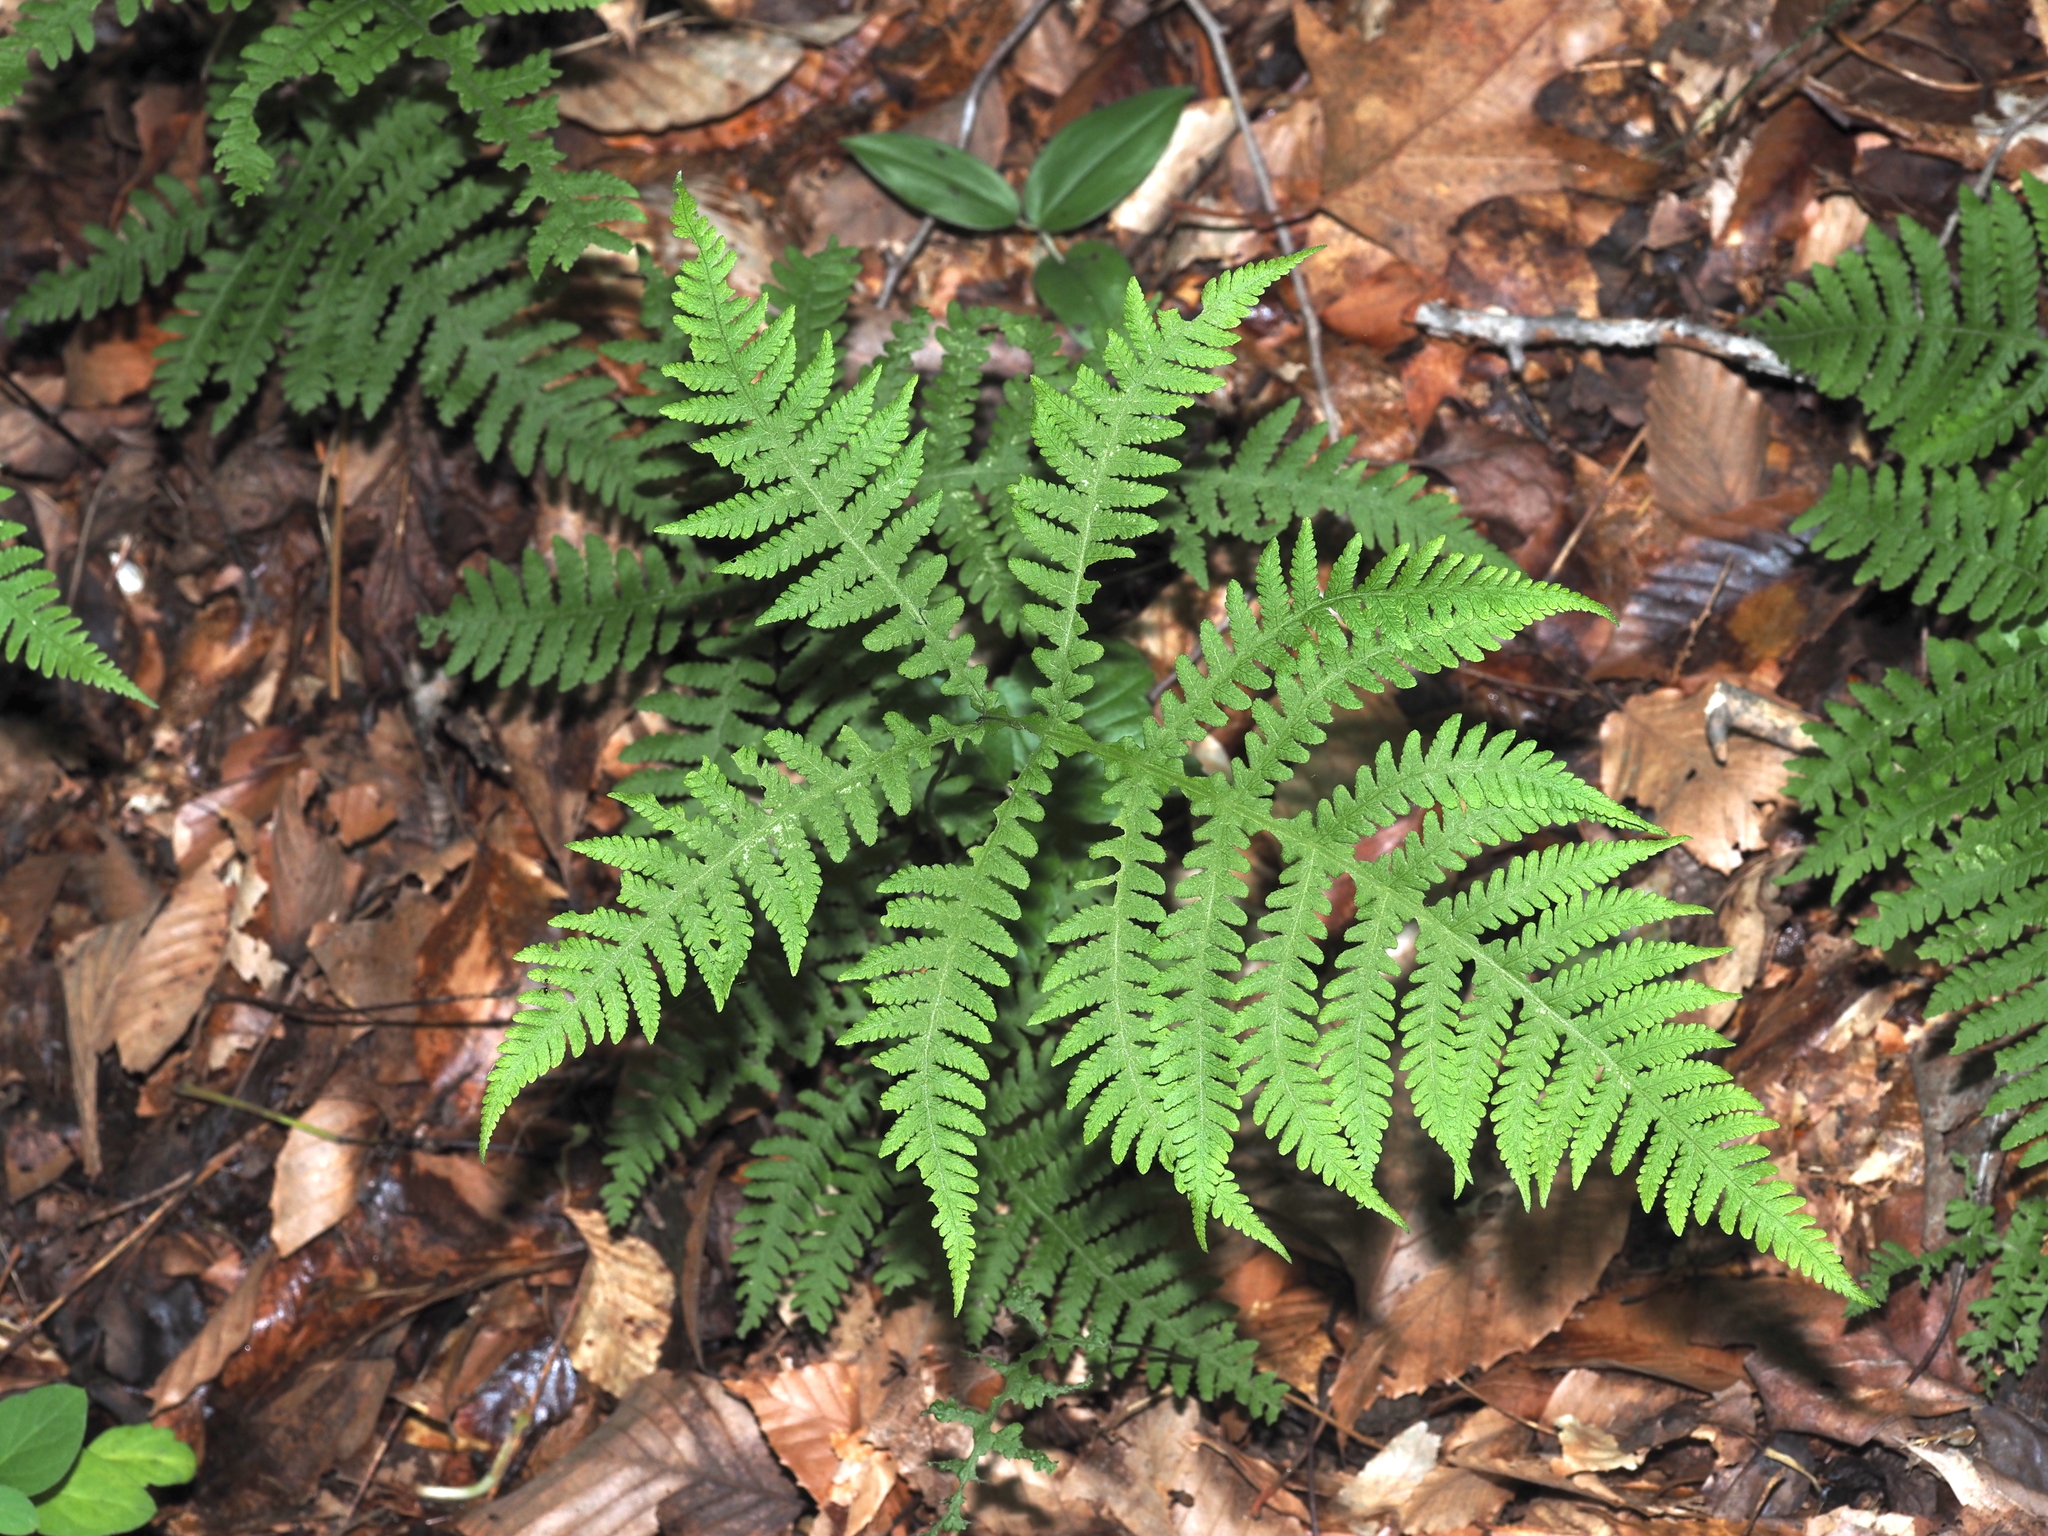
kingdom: Plantae
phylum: Tracheophyta
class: Polypodiopsida
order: Polypodiales
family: Thelypteridaceae
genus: Phegopteris
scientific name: Phegopteris hexagonoptera
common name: Broad beech fern
